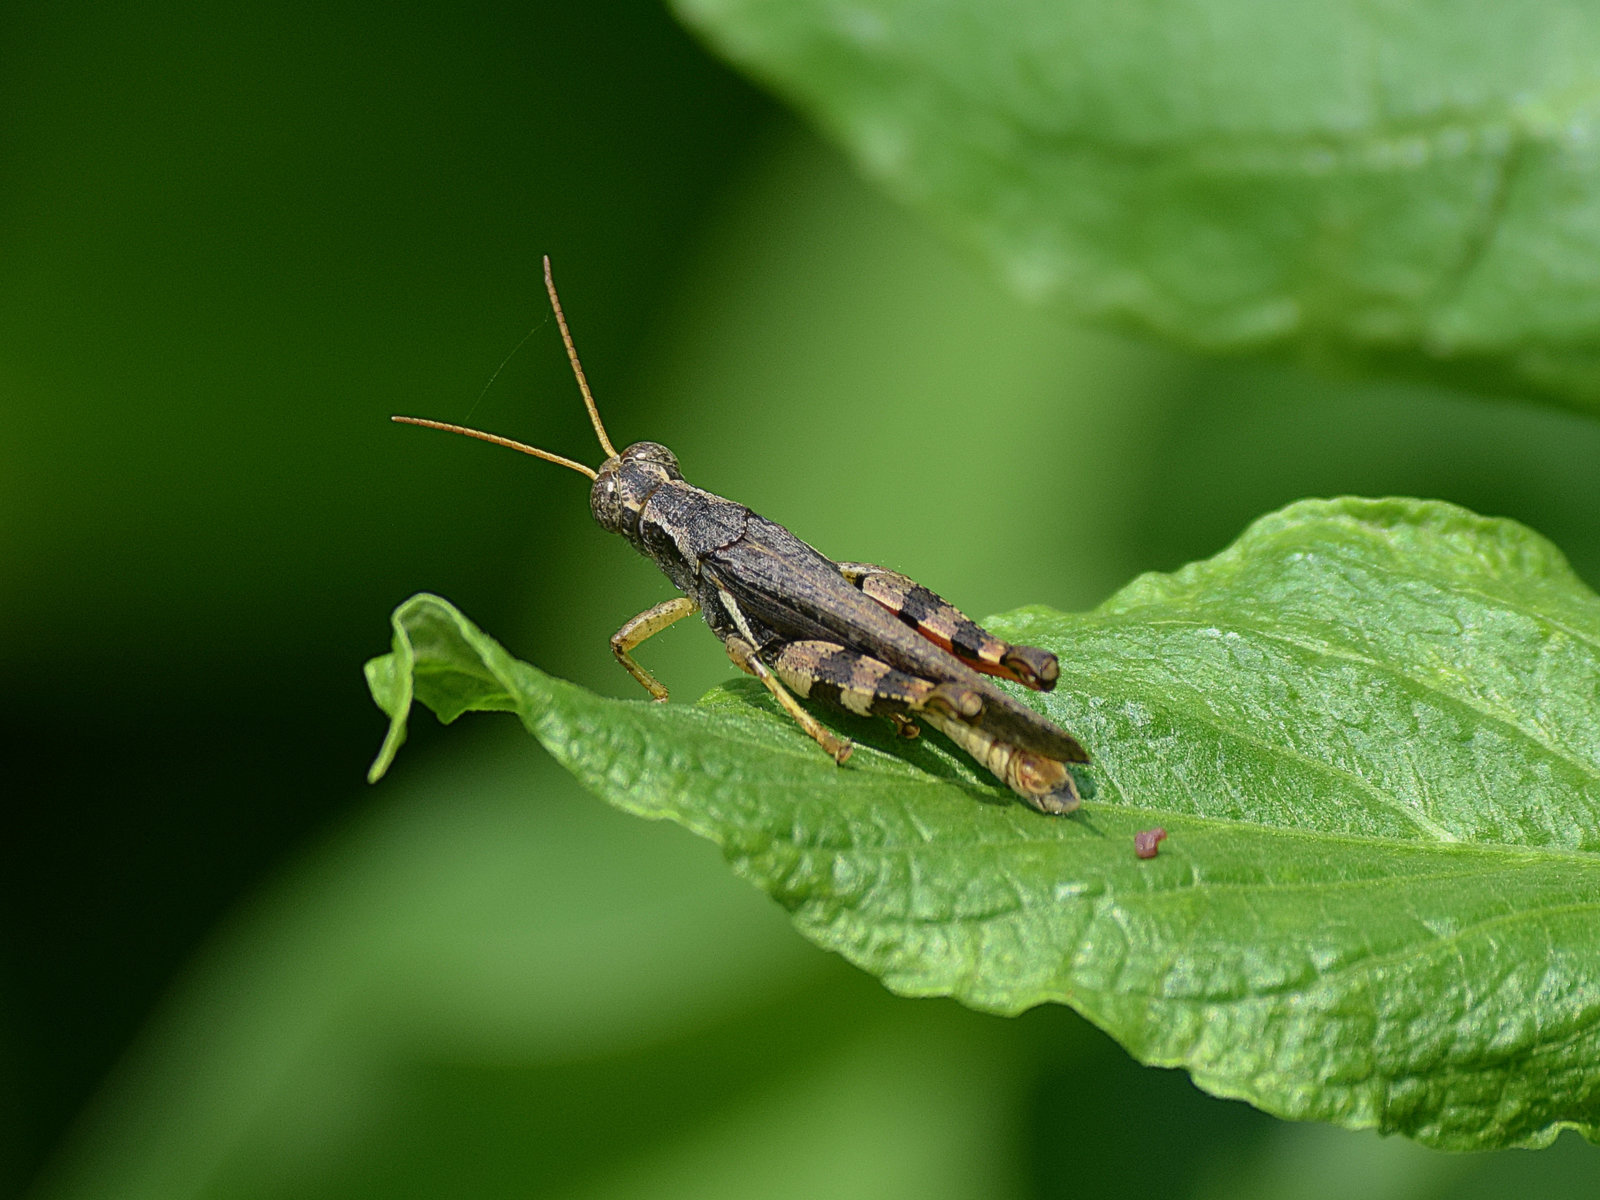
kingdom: Animalia
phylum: Arthropoda
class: Insecta
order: Orthoptera
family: Acrididae
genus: Xenocatantops
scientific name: Xenocatantops humile
